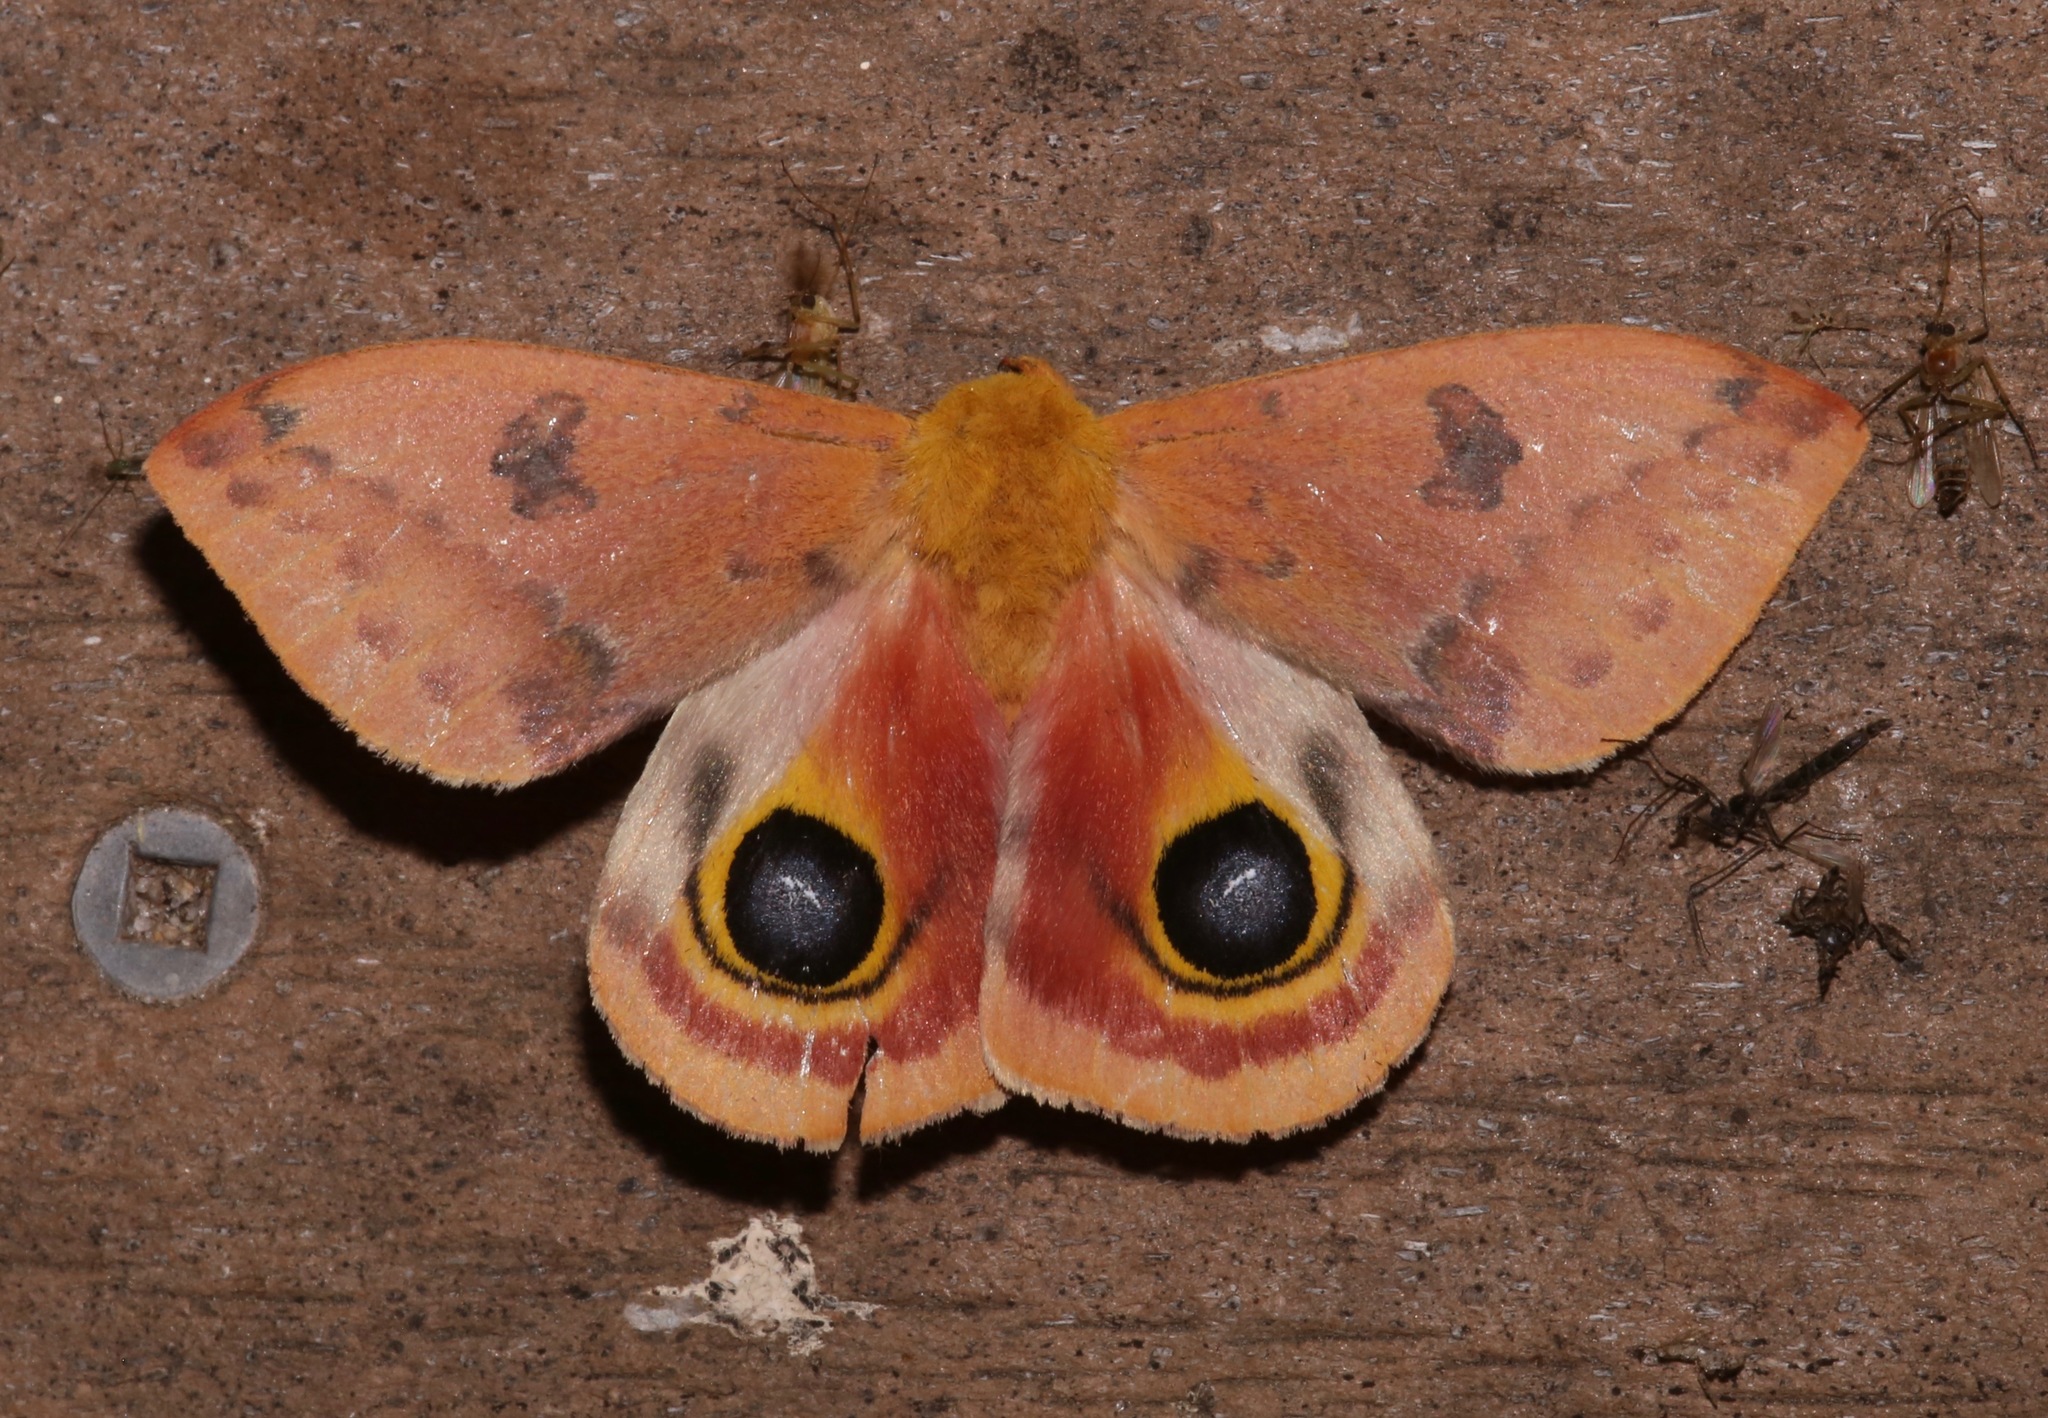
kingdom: Animalia
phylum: Arthropoda
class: Insecta
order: Lepidoptera
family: Saturniidae
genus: Automeris
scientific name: Automeris io
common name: Io moth
